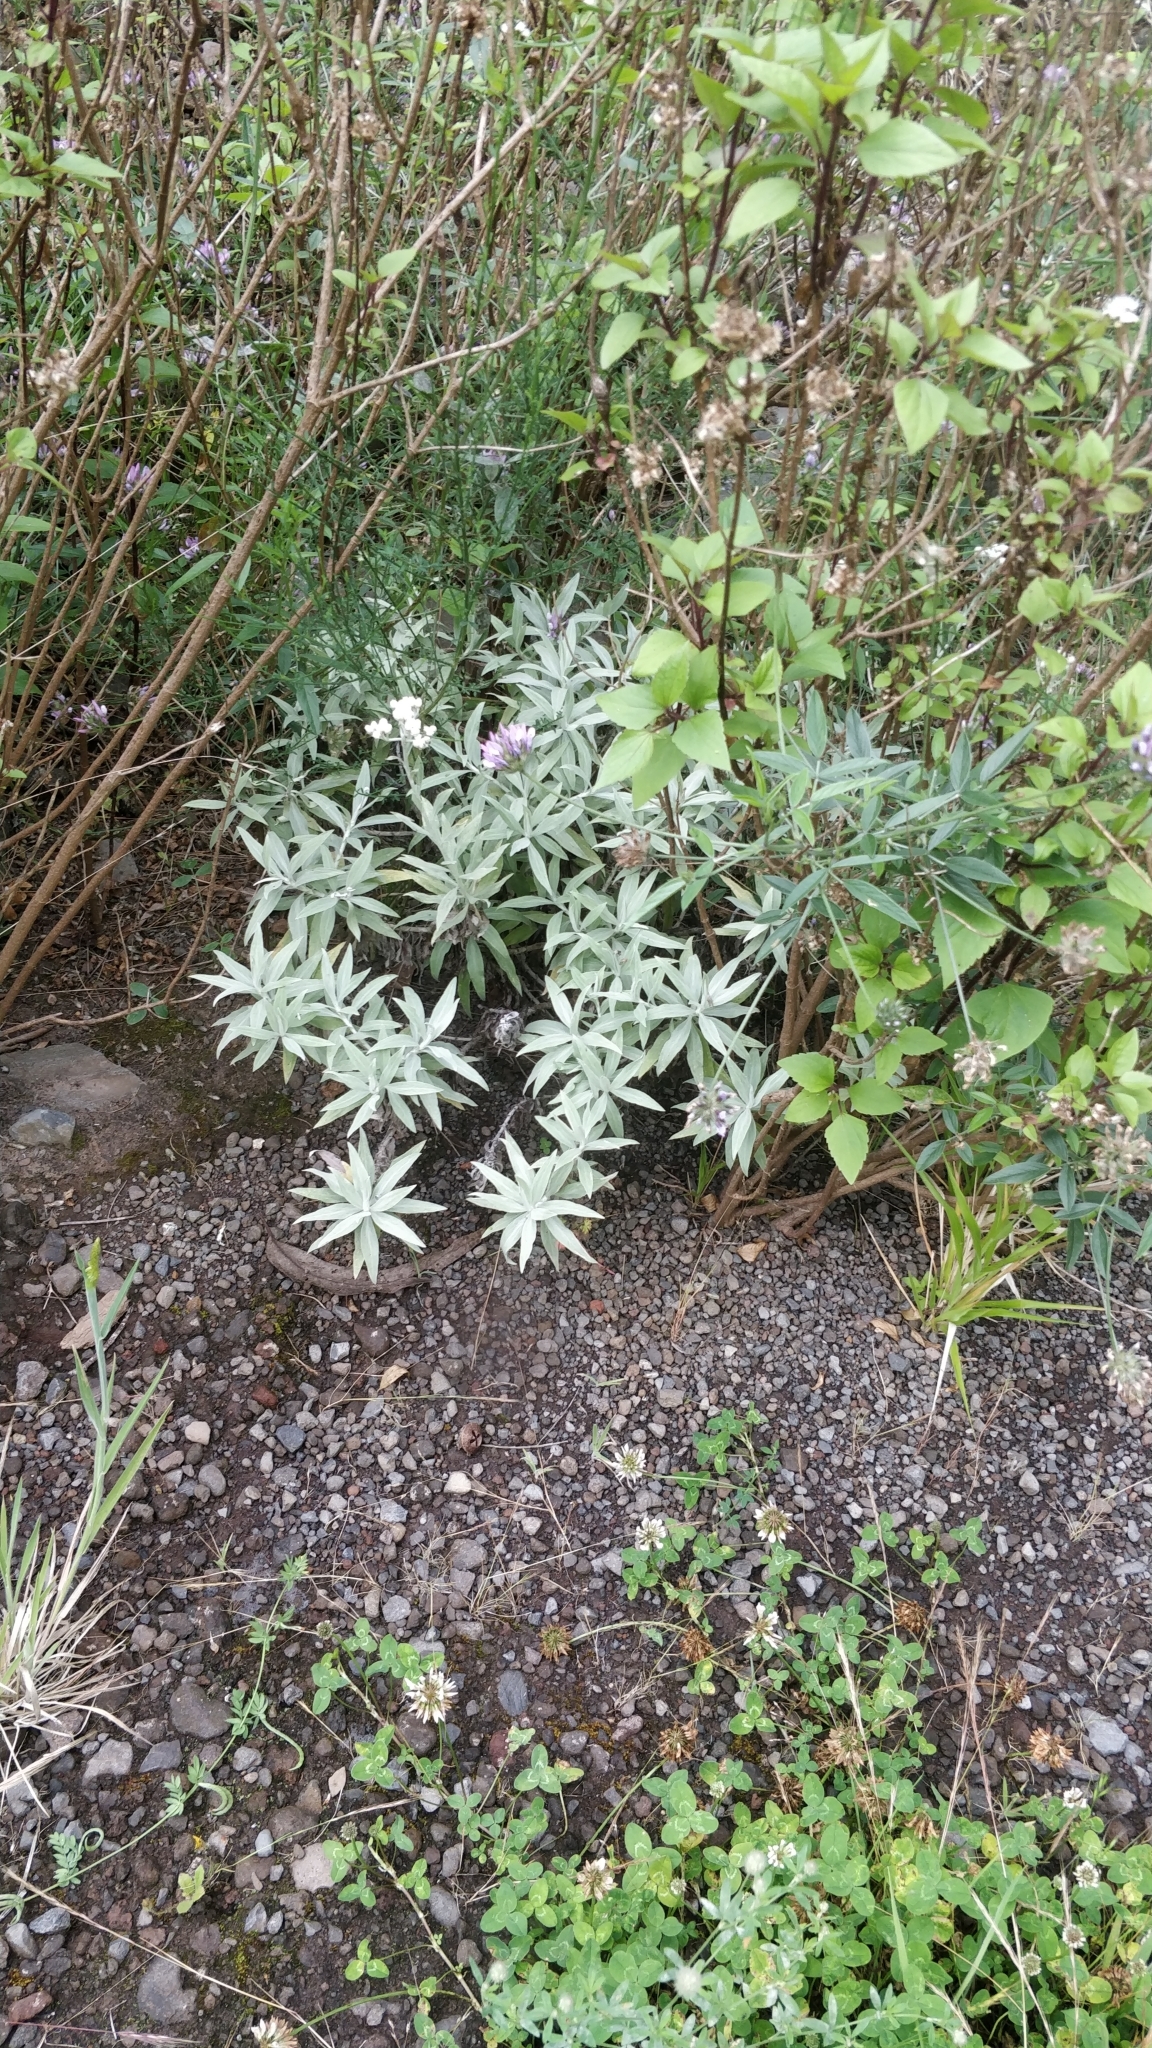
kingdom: Plantae
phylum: Tracheophyta
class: Magnoliopsida
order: Asterales
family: Asteraceae
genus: Helichrysum
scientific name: Helichrysum melaleucum
